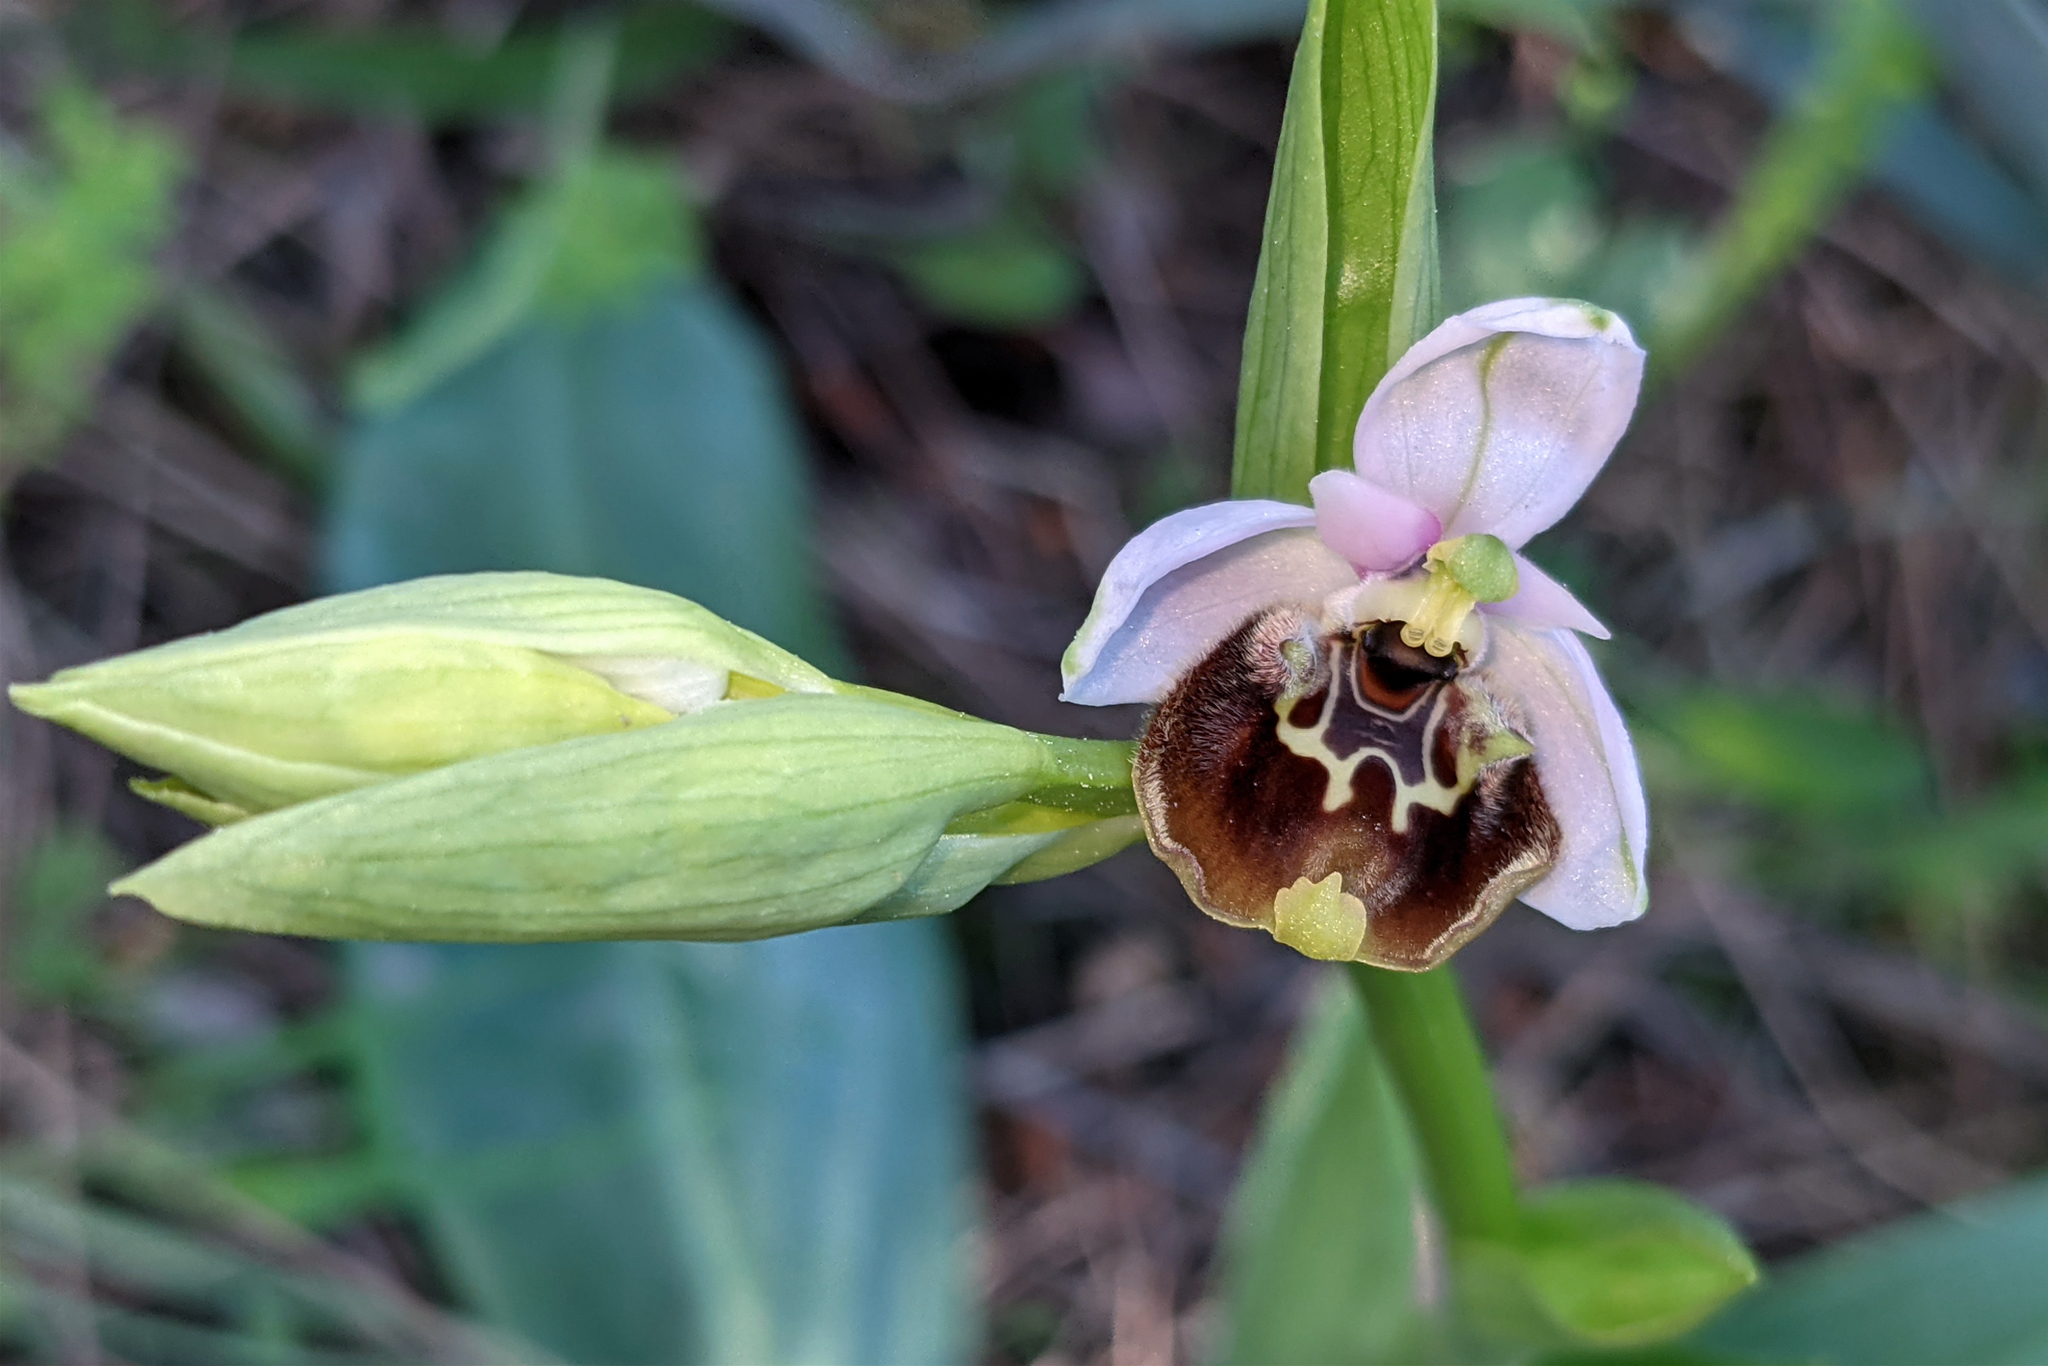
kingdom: Plantae
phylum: Tracheophyta
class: Liliopsida
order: Asparagales
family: Orchidaceae
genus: Ophrys
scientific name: Ophrys holosericea
